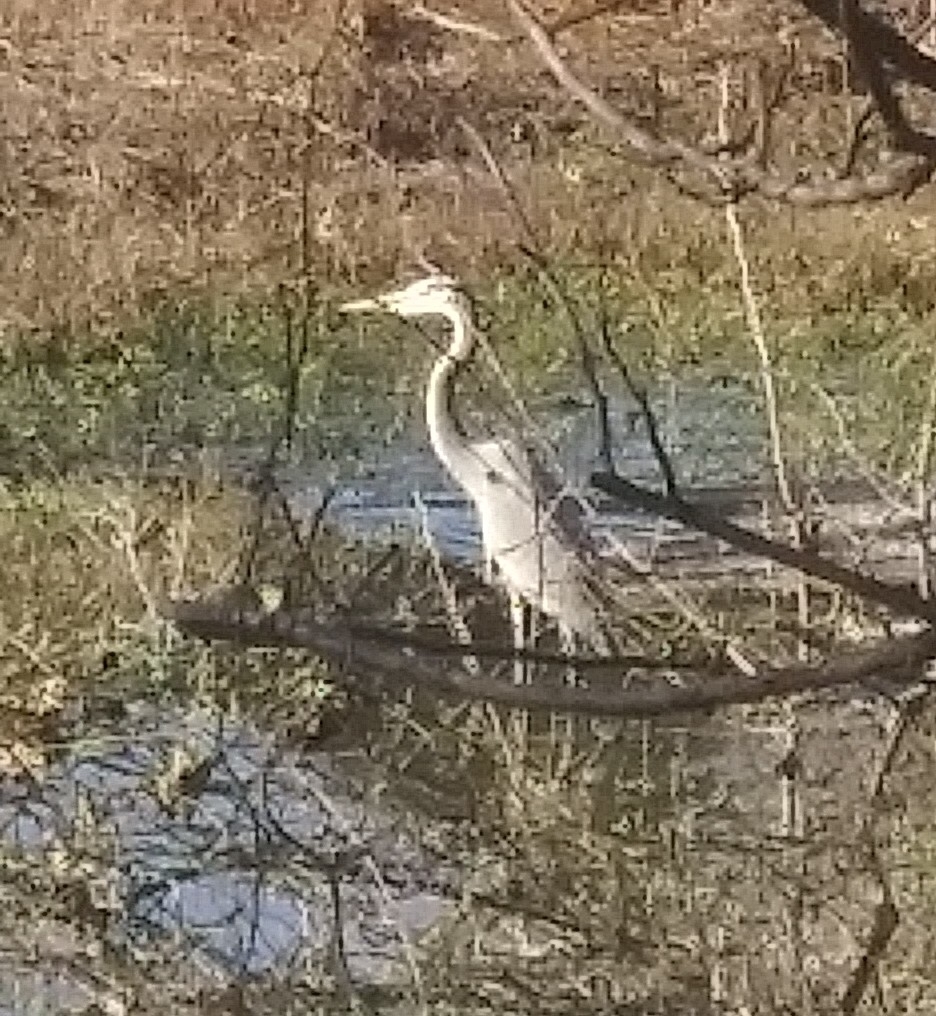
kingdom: Animalia
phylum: Chordata
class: Aves
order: Pelecaniformes
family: Ardeidae
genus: Ardea
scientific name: Ardea herodias
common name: Great blue heron
